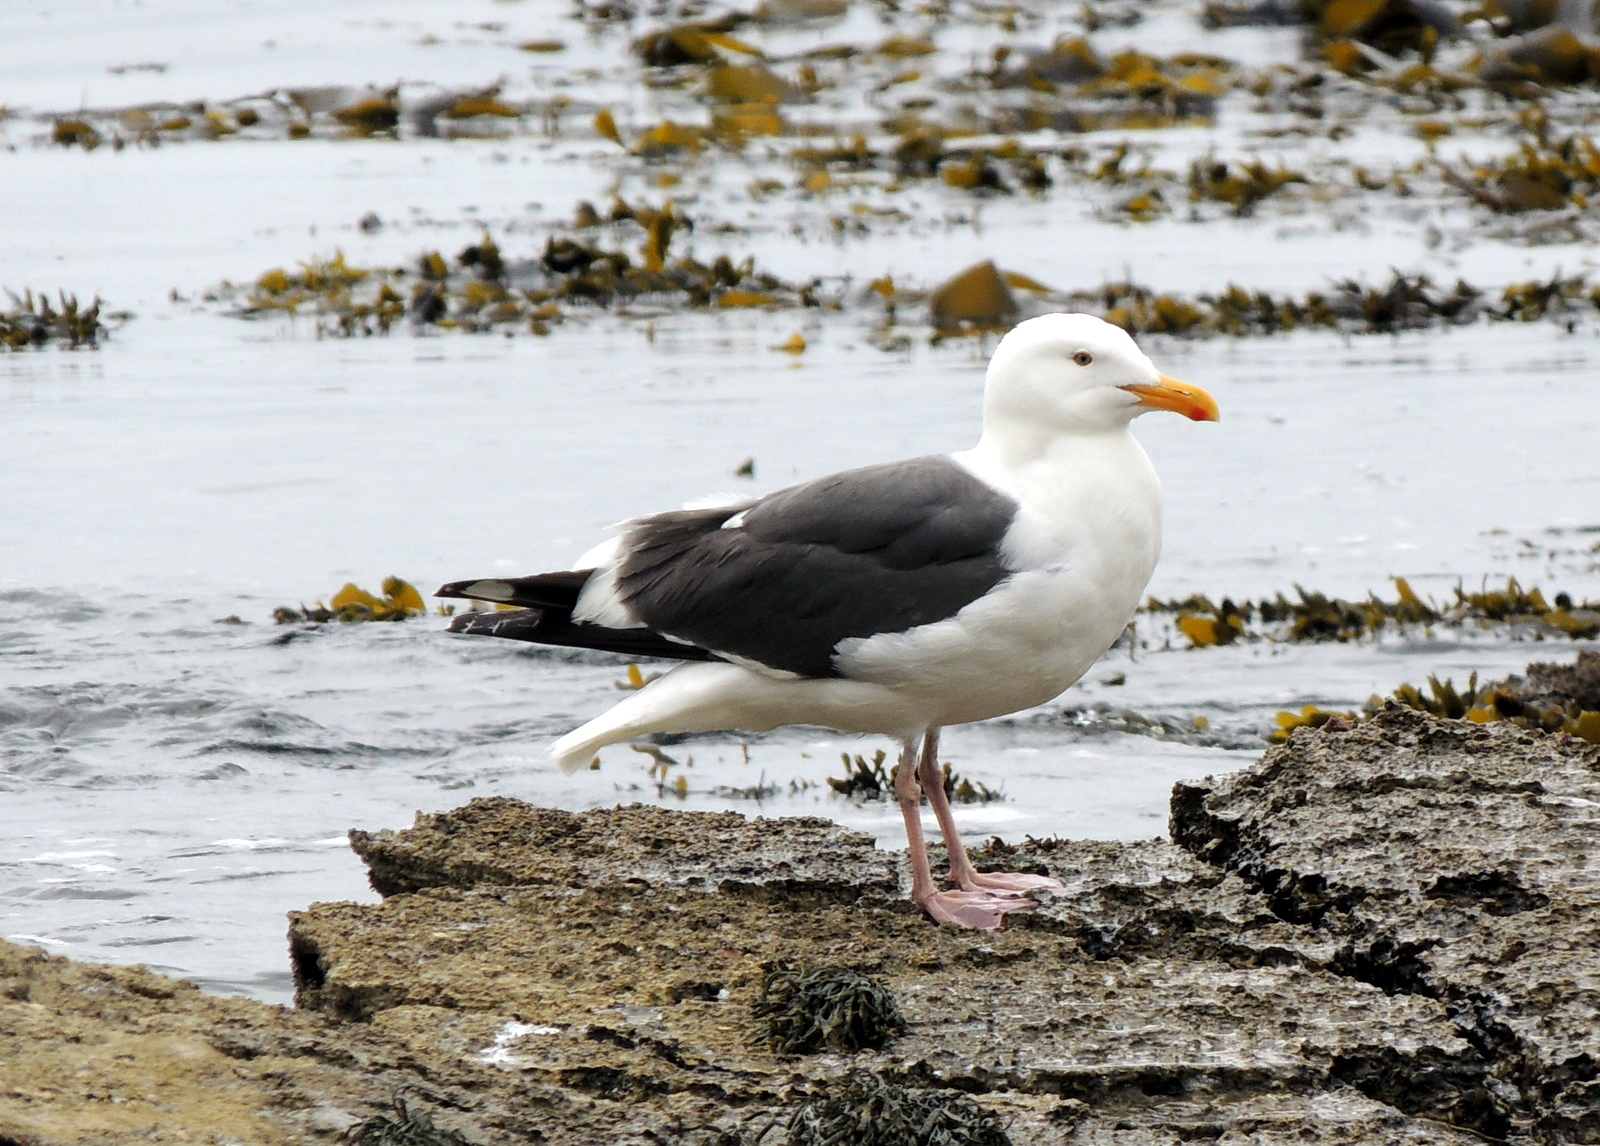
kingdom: Animalia
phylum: Chordata
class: Aves
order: Charadriiformes
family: Laridae
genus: Larus
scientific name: Larus occidentalis
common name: Western gull
